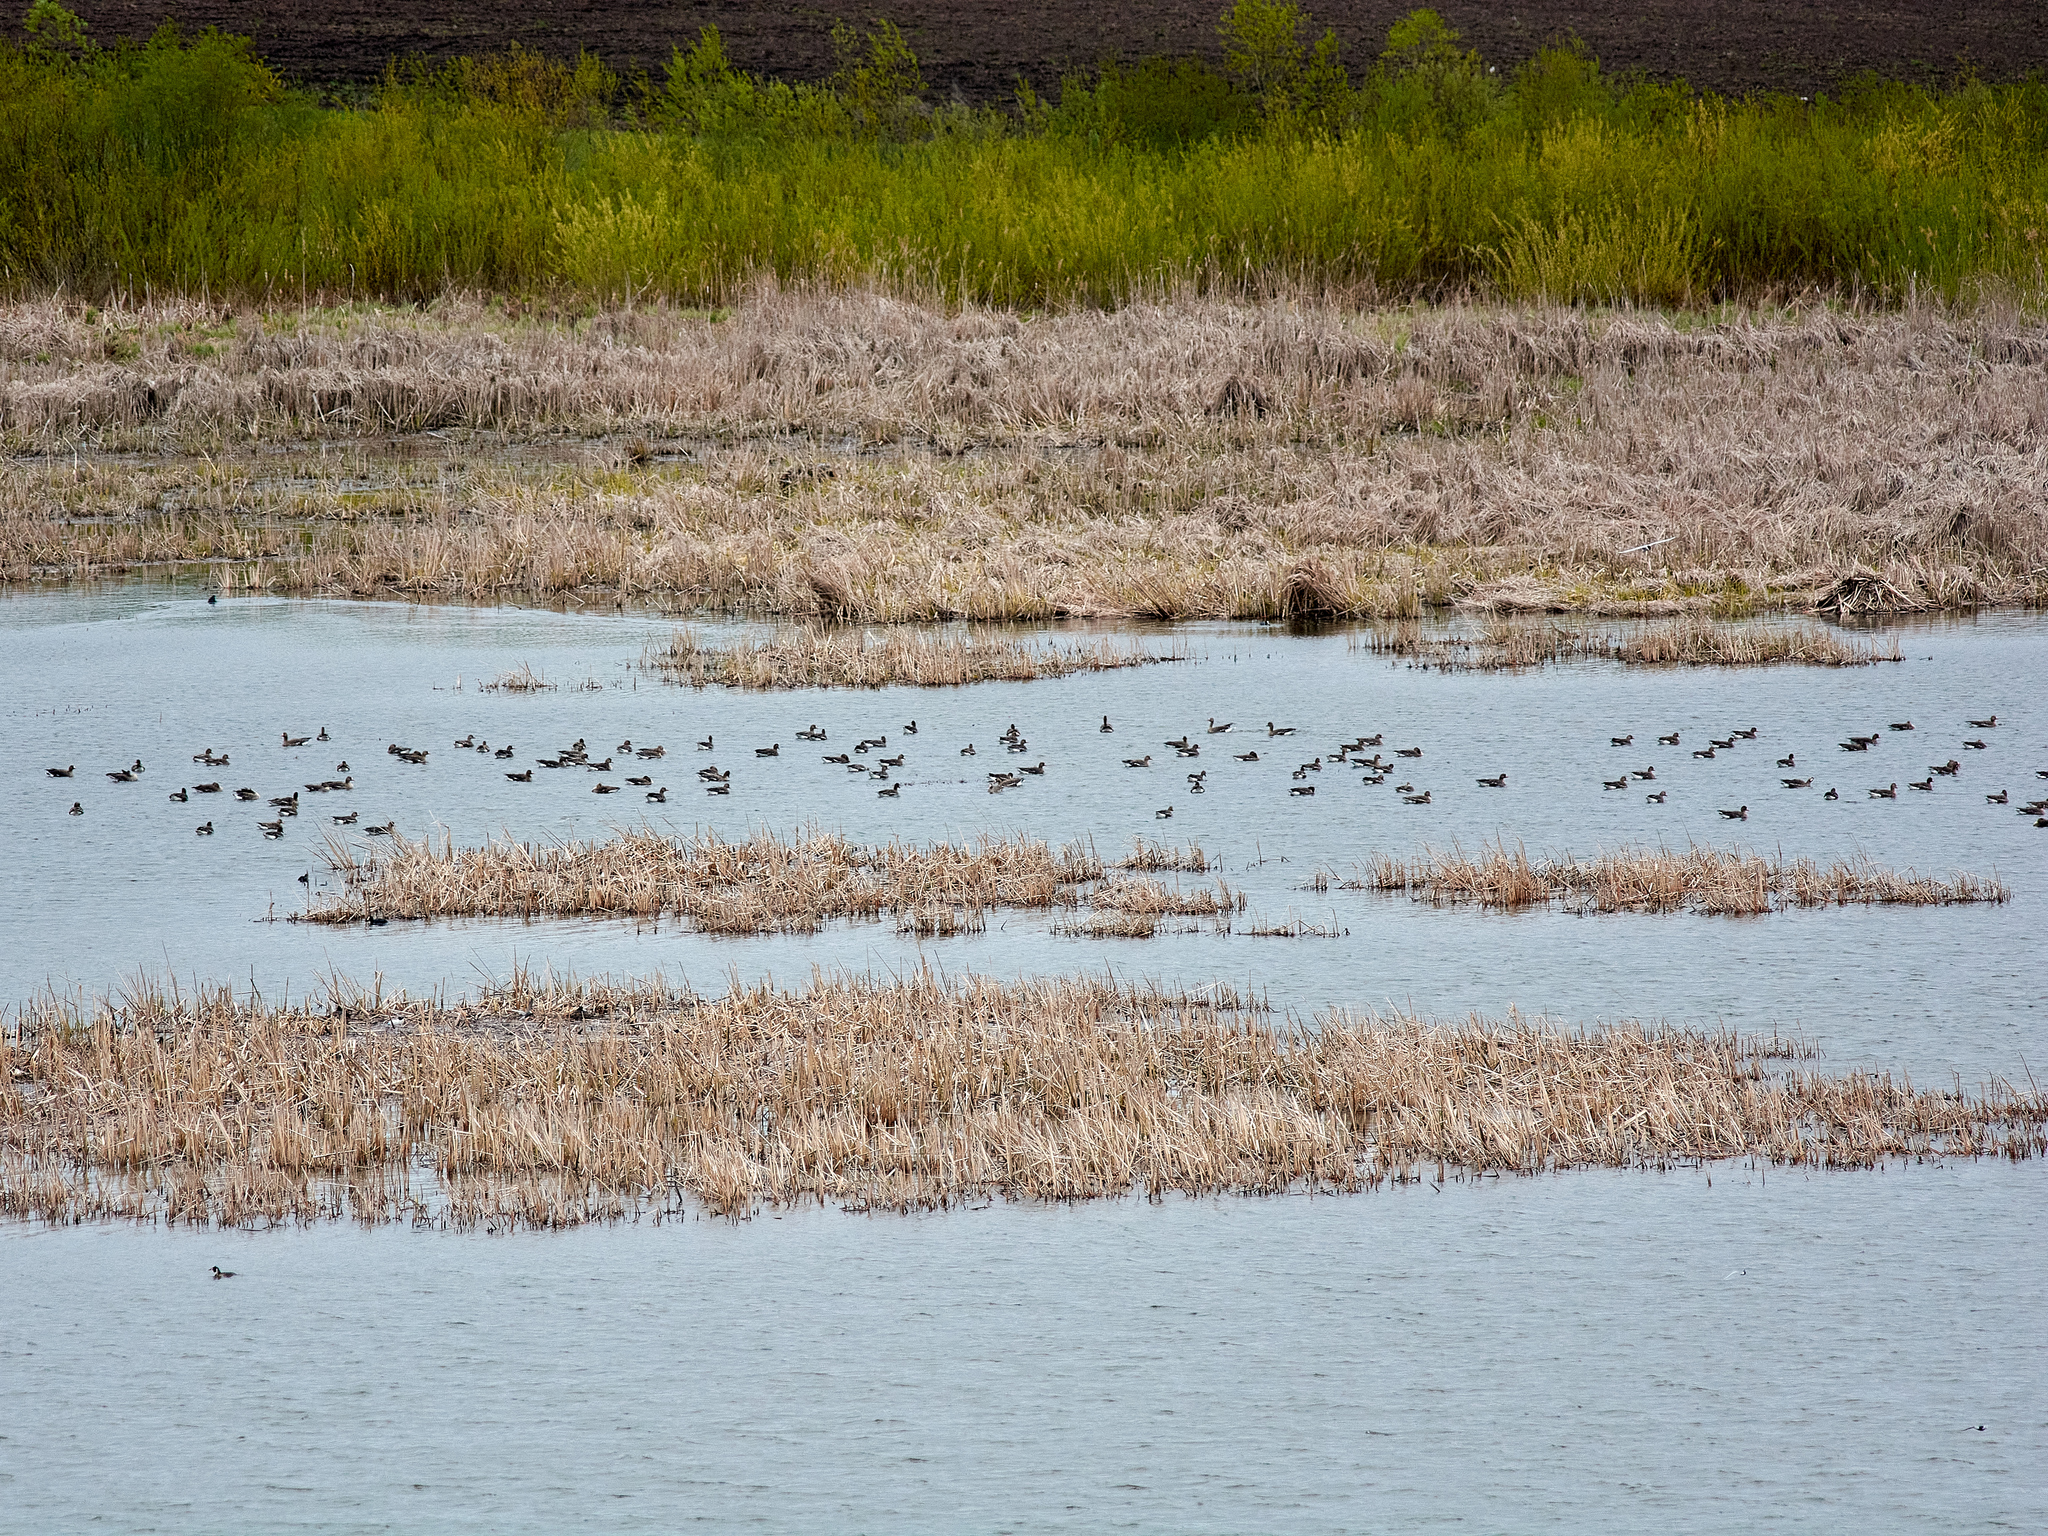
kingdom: Animalia
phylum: Chordata
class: Aves
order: Anseriformes
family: Anatidae
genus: Anser
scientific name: Anser albifrons
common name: Greater white-fronted goose
